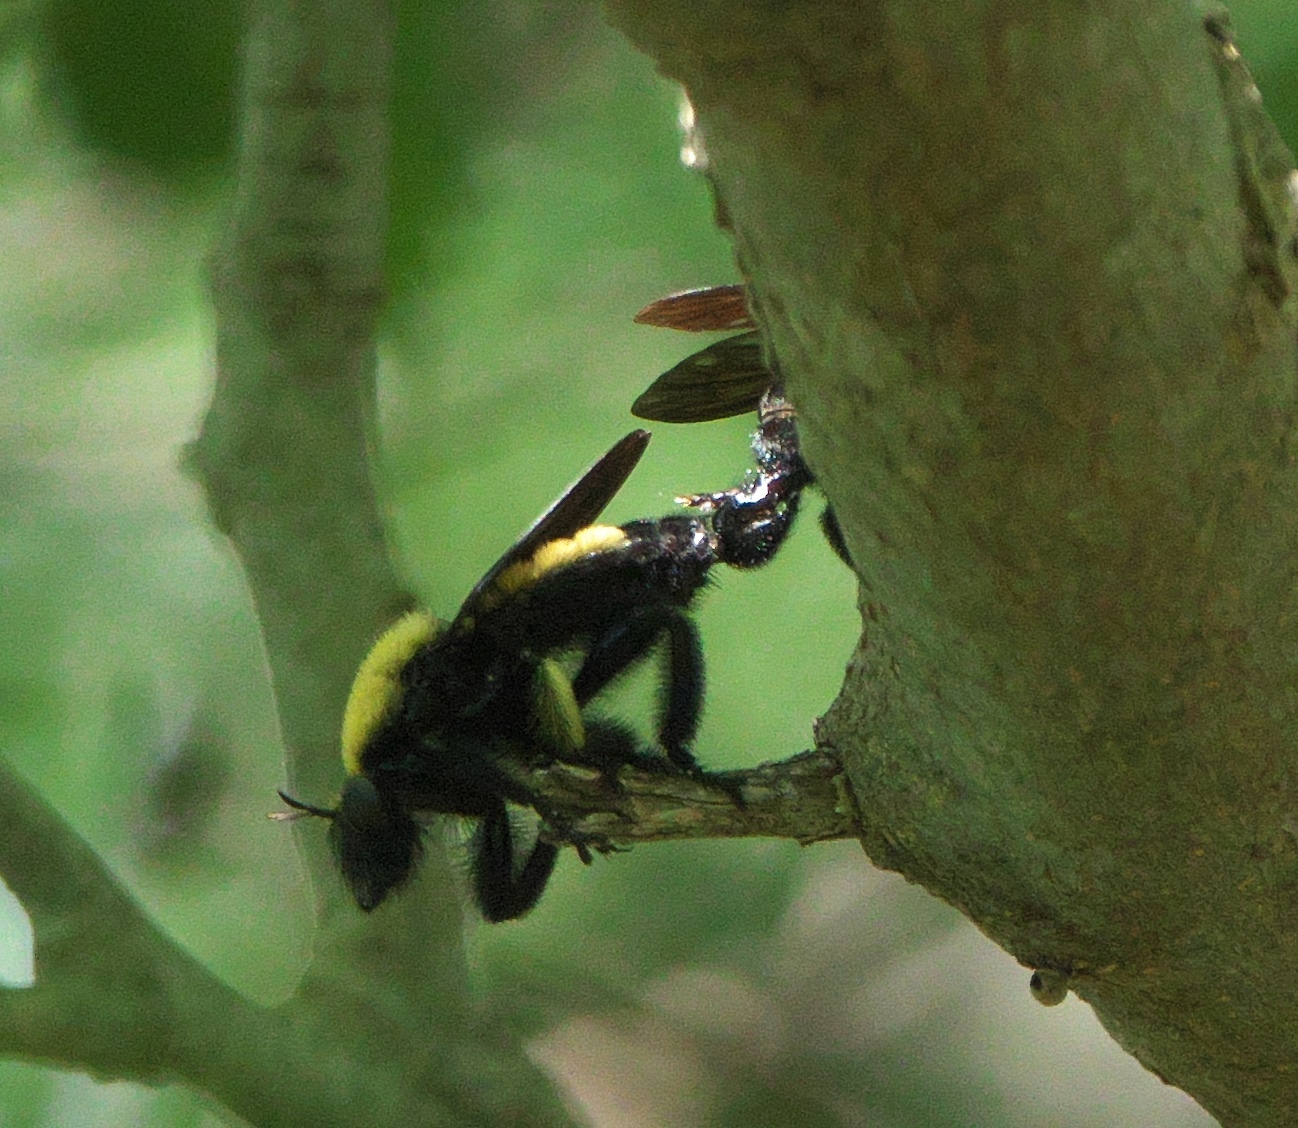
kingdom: Animalia
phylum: Arthropoda
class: Insecta
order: Diptera
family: Asilidae
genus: Laphria
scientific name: Laphria macquarti
